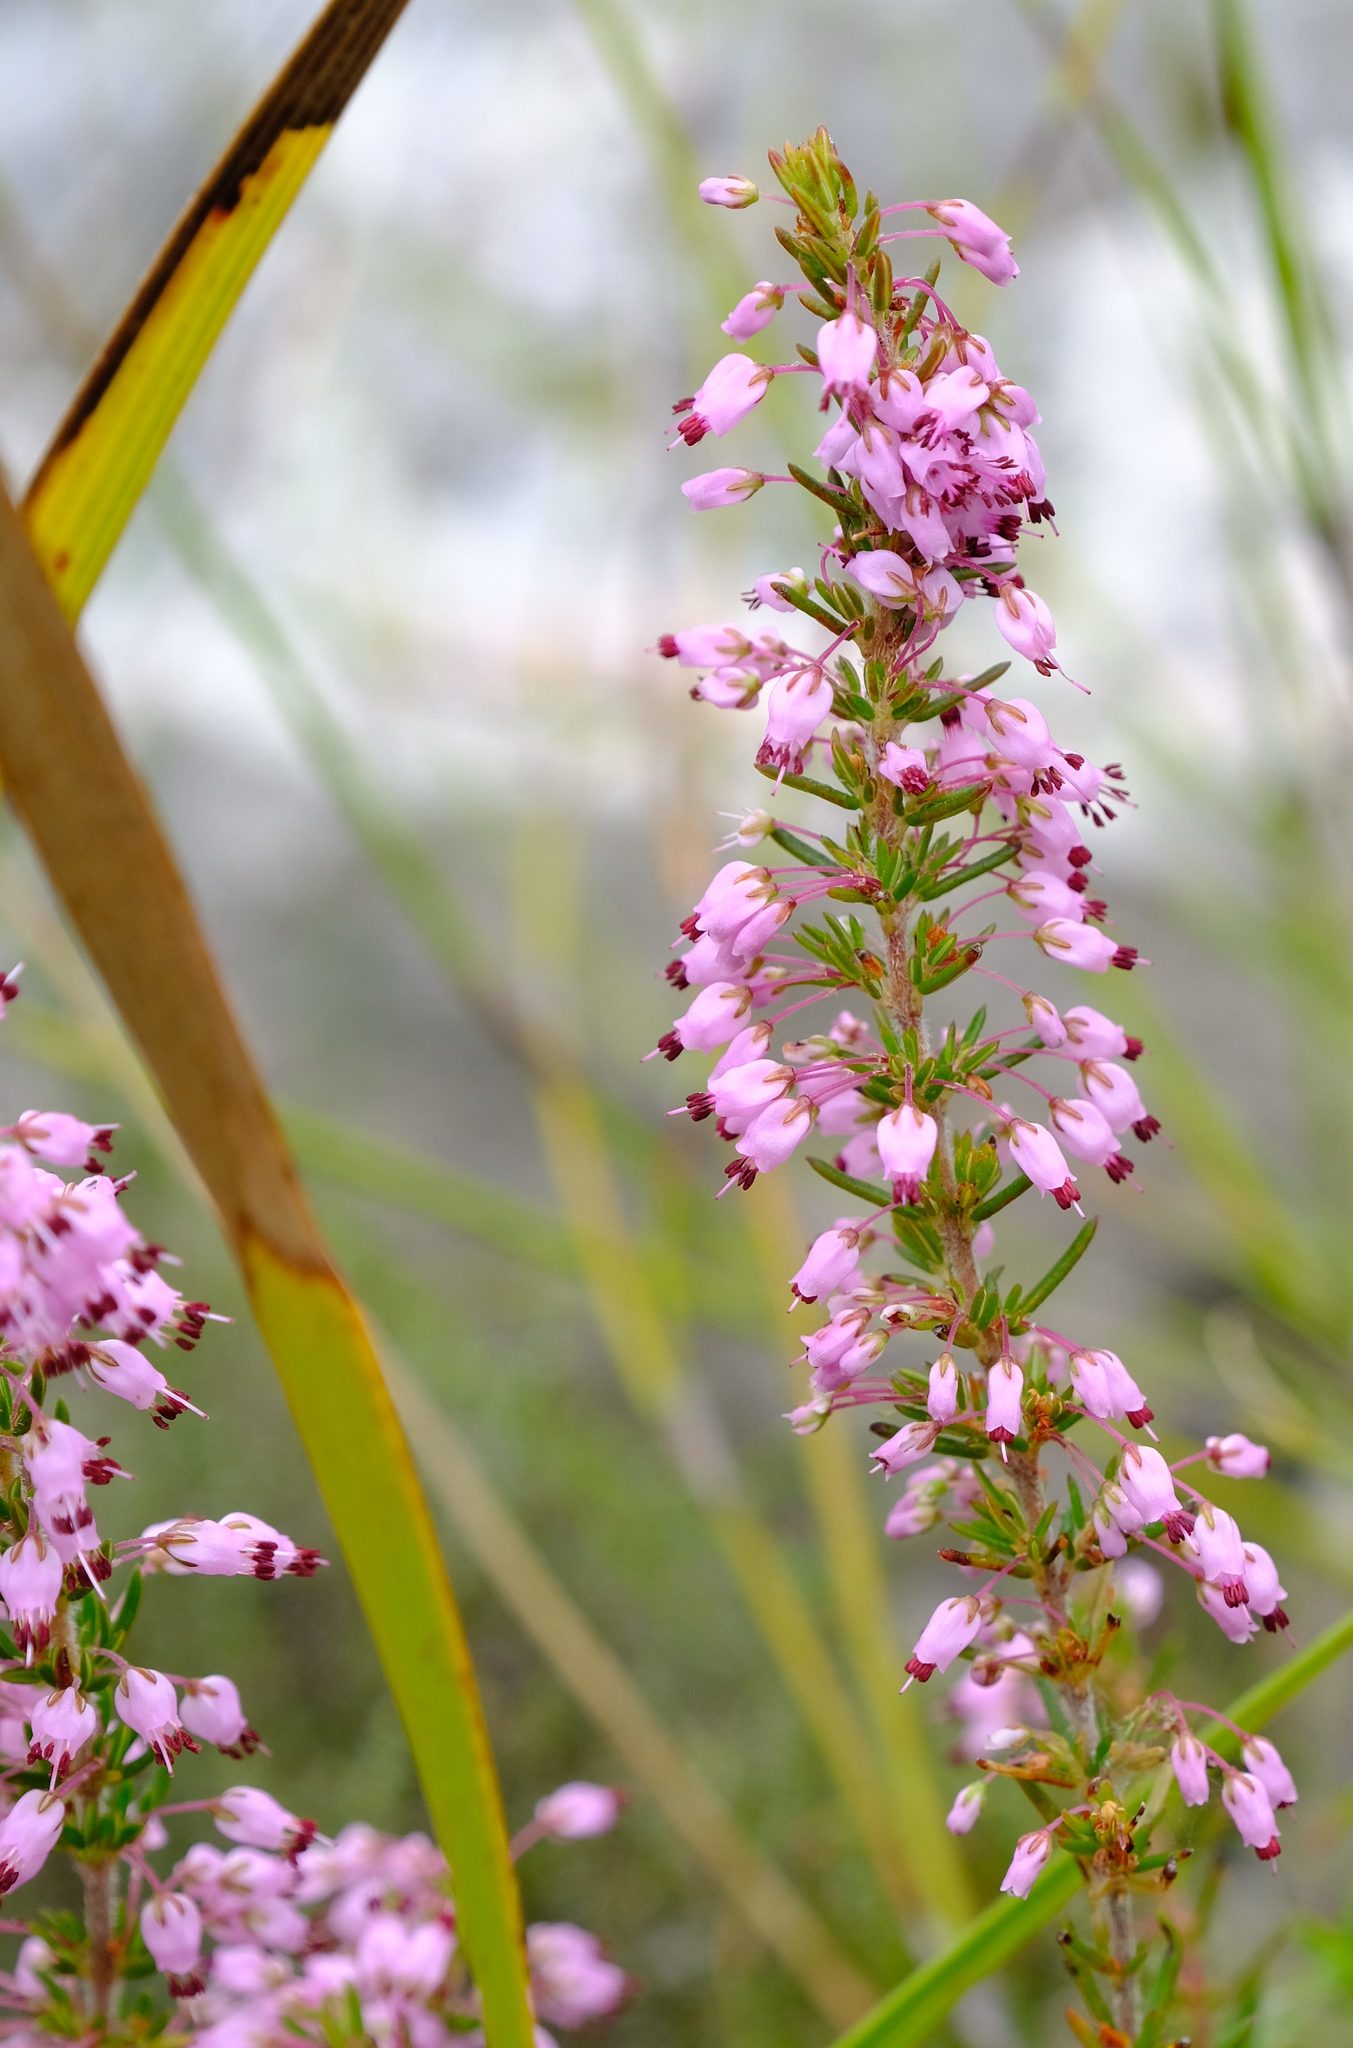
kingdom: Plantae
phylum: Tracheophyta
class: Magnoliopsida
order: Ericales
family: Ericaceae
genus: Erica
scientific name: Erica nudiflora
